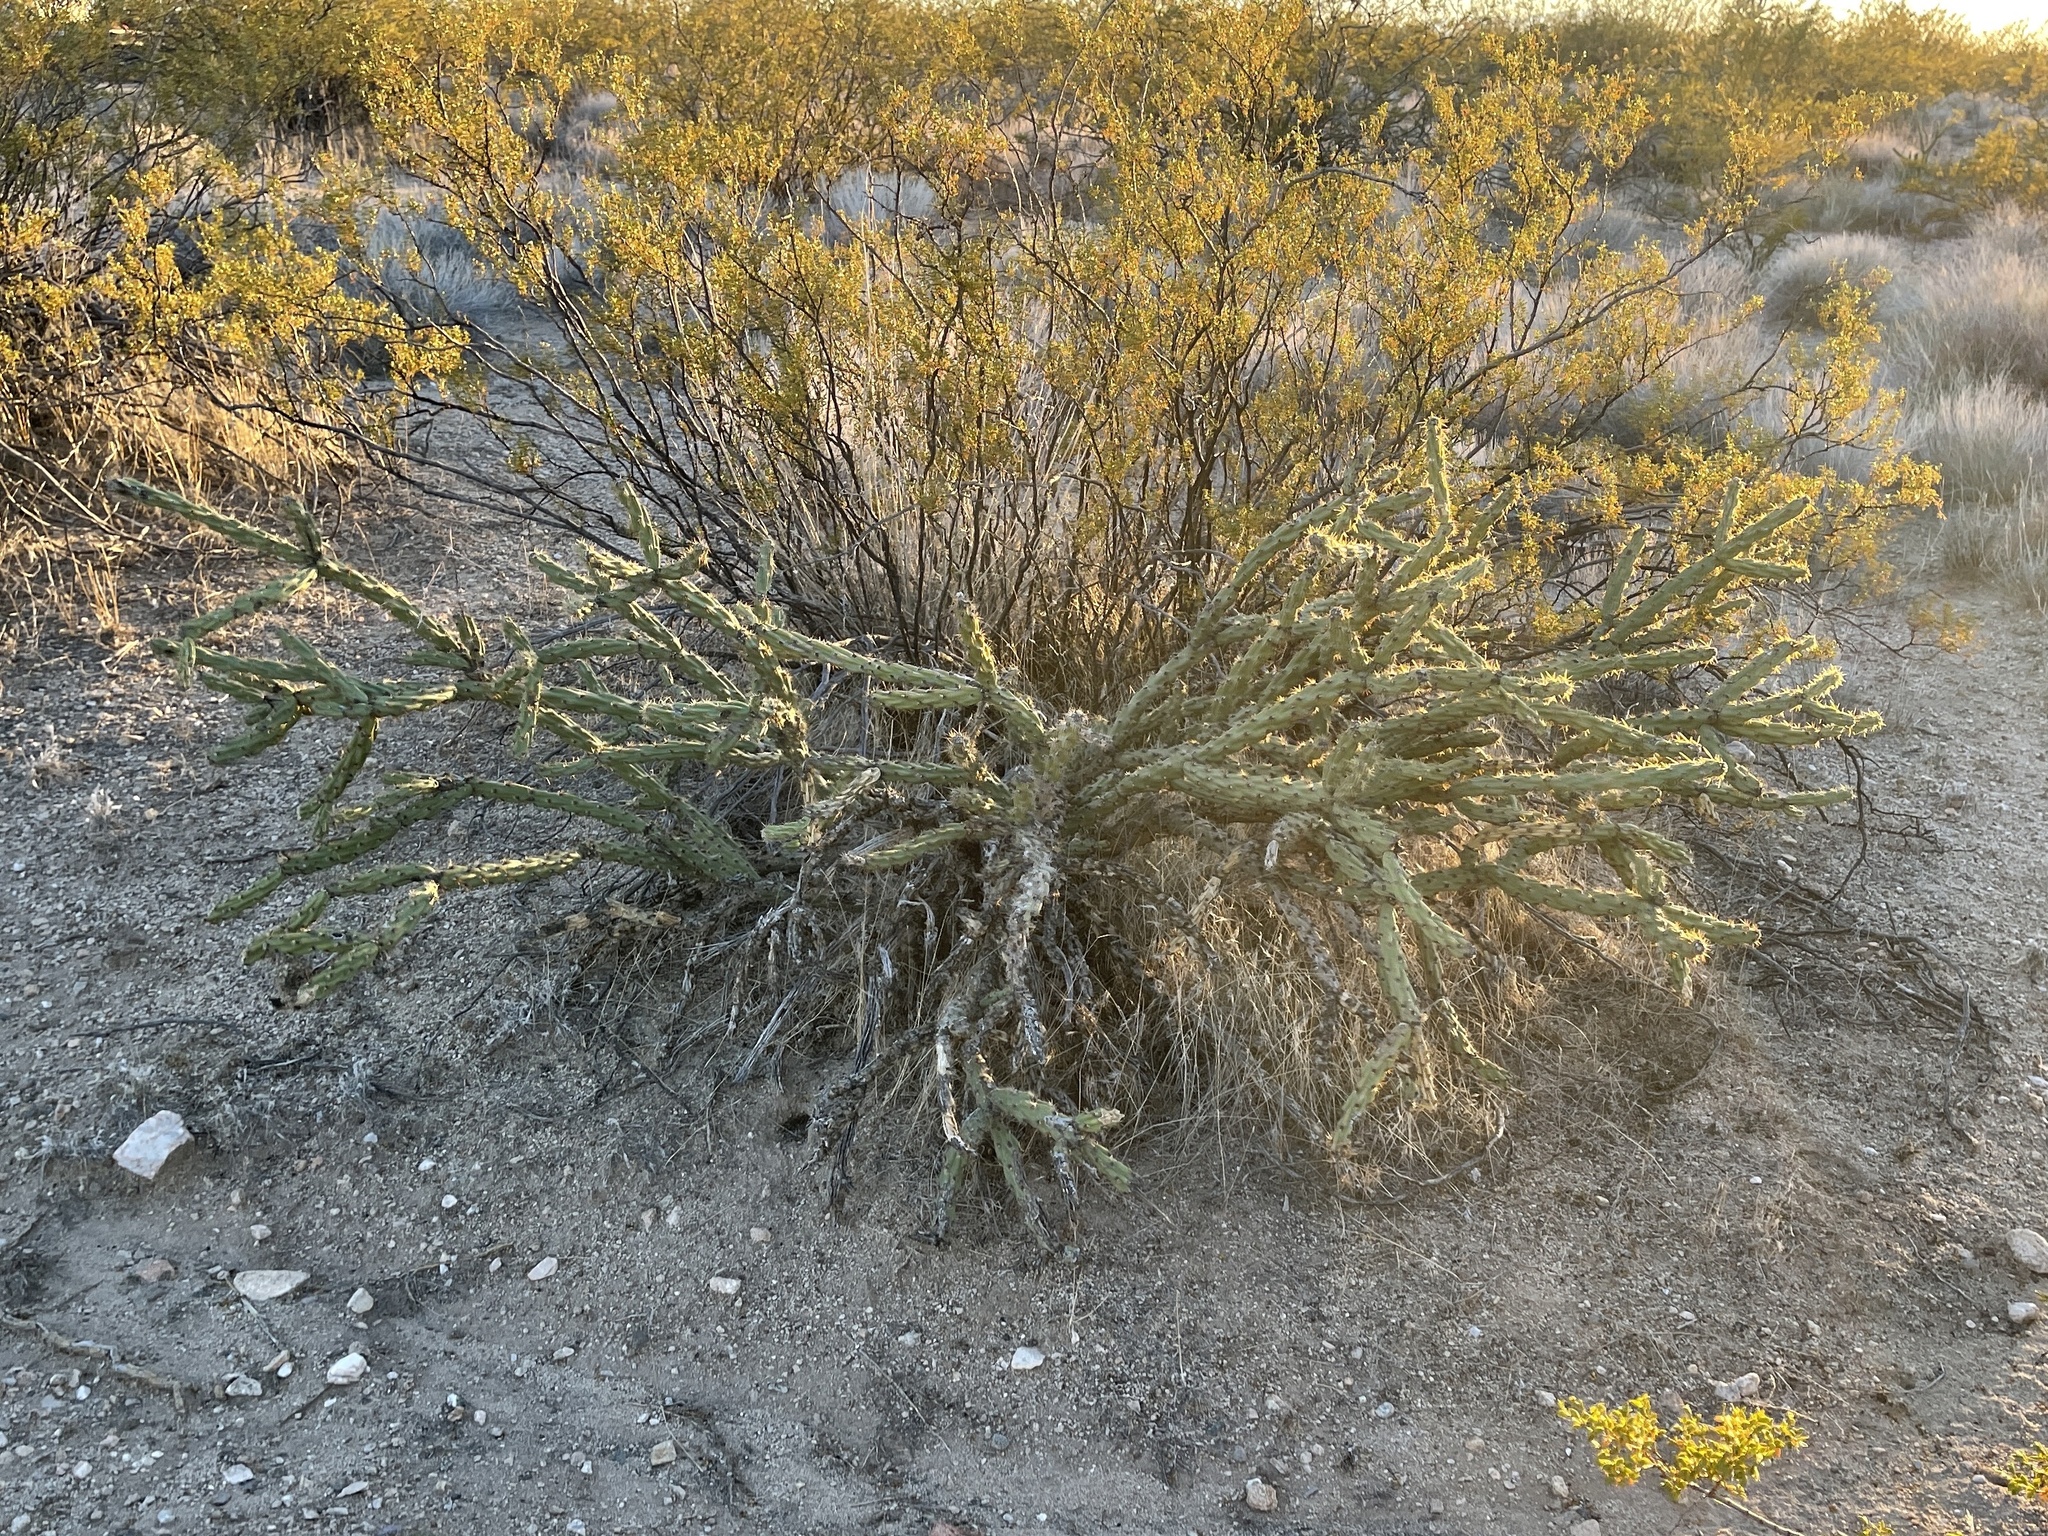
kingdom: Plantae
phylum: Tracheophyta
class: Magnoliopsida
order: Caryophyllales
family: Cactaceae
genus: Cylindropuntia
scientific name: Cylindropuntia acanthocarpa
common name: Buckhorn cholla
